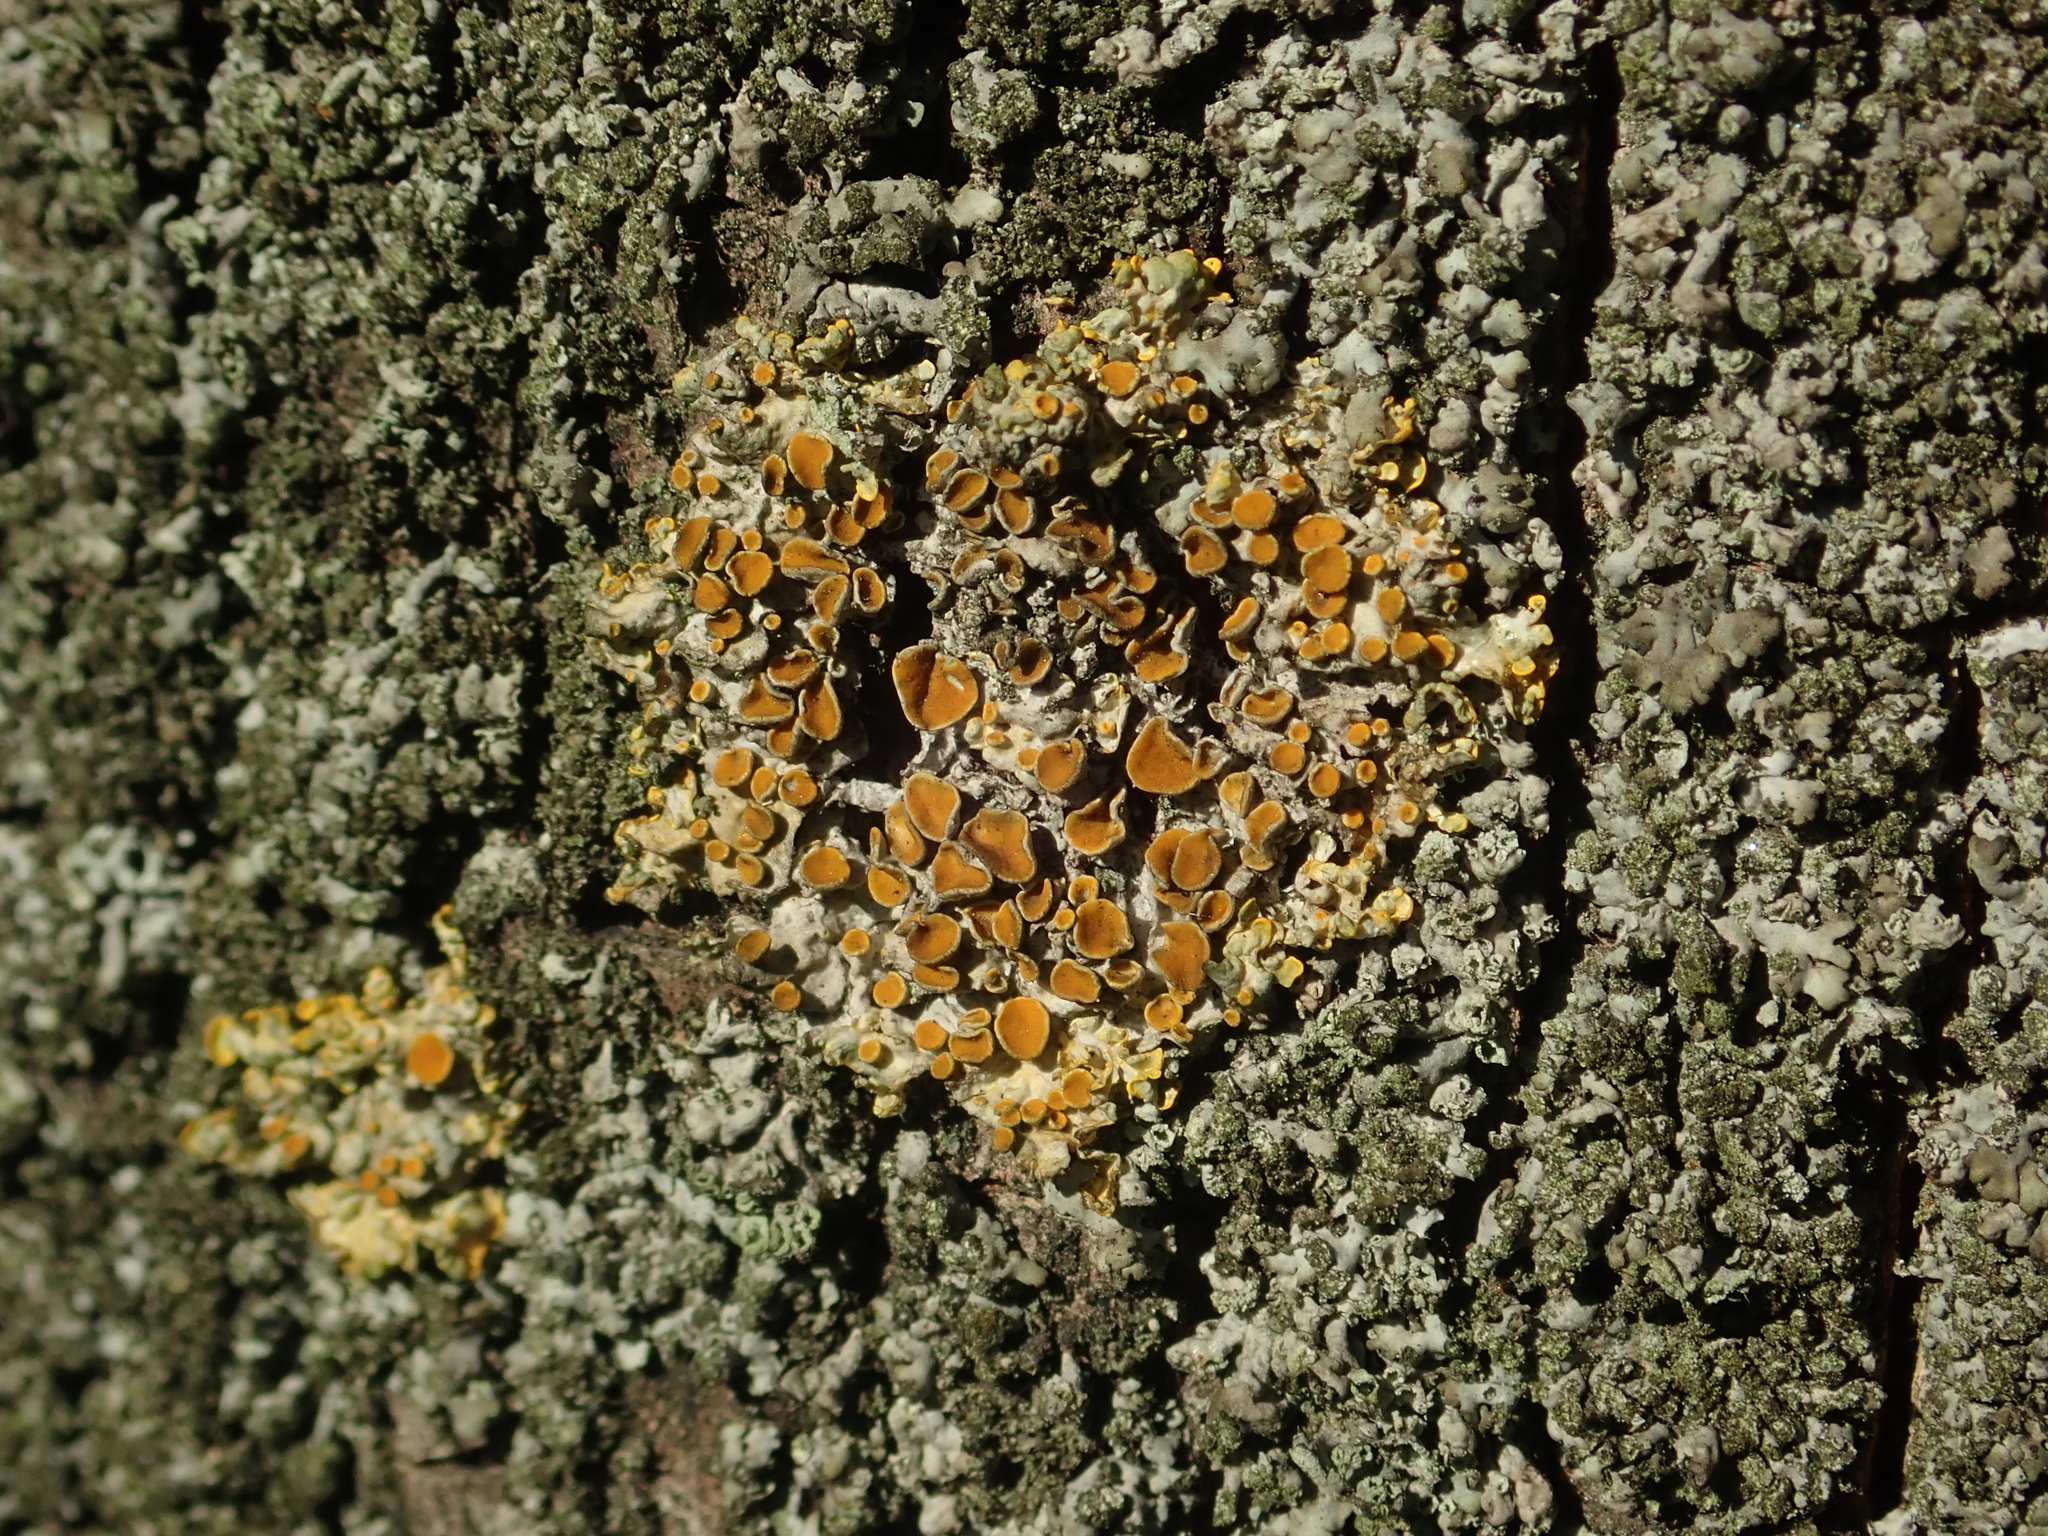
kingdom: Fungi
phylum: Ascomycota
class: Lecanoromycetes
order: Teloschistales
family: Teloschistaceae
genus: Xanthoria
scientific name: Xanthoria parietina
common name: Common orange lichen
